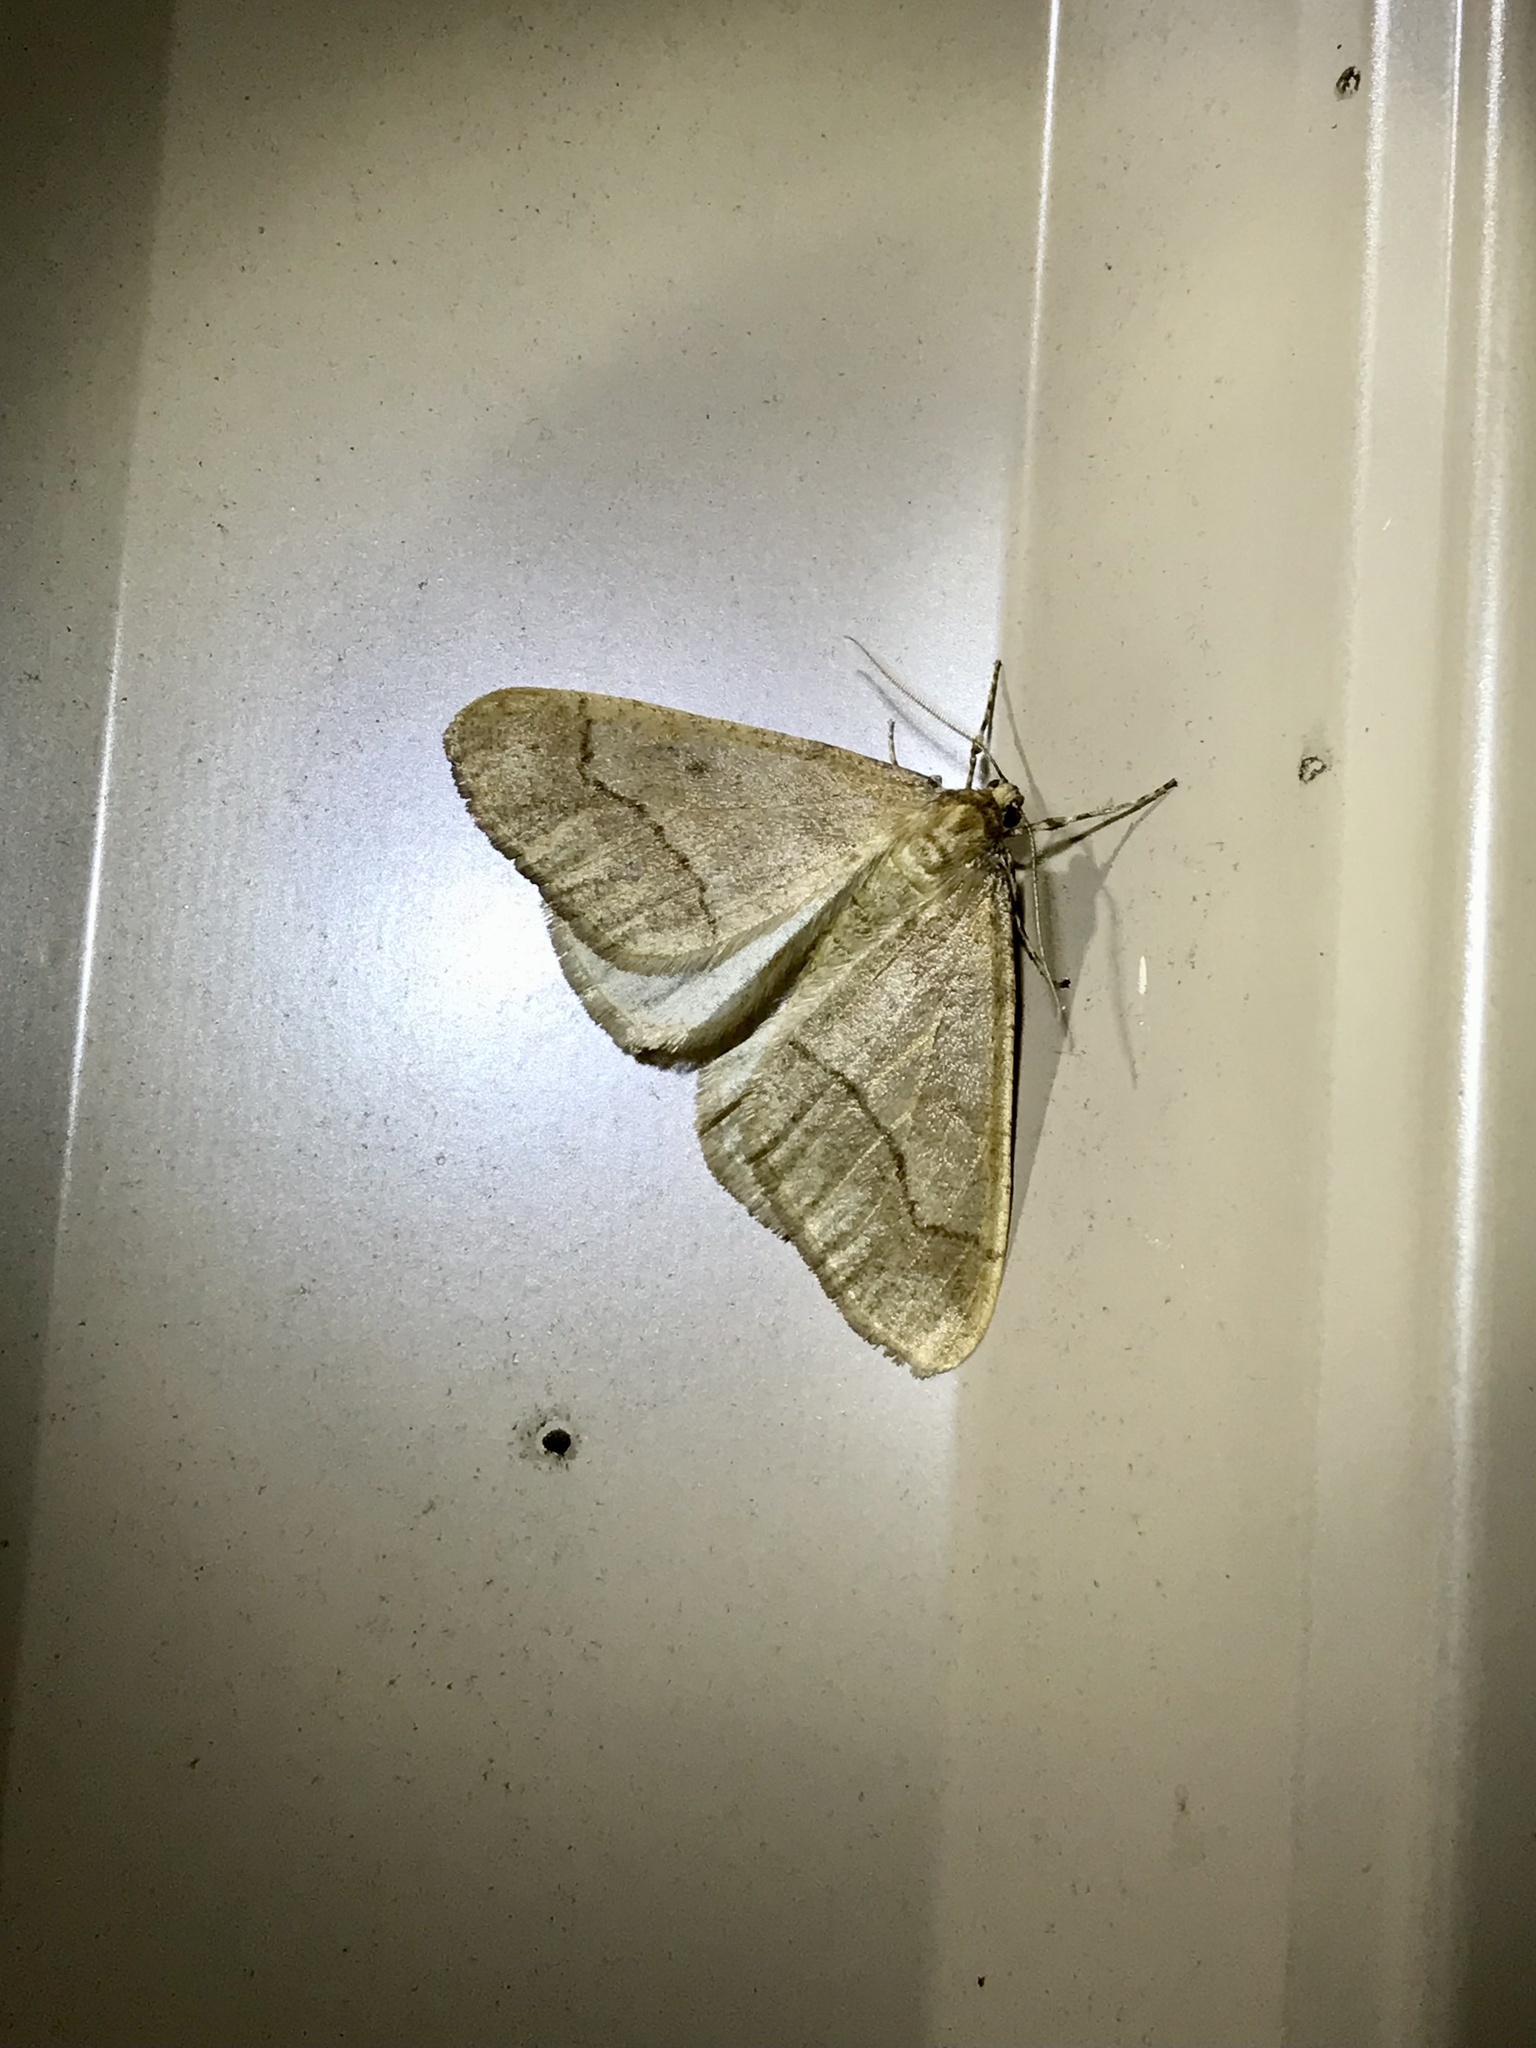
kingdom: Animalia
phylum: Arthropoda
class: Insecta
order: Lepidoptera
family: Geometridae
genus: Erannis
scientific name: Erannis tiliaria
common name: Linden looper
